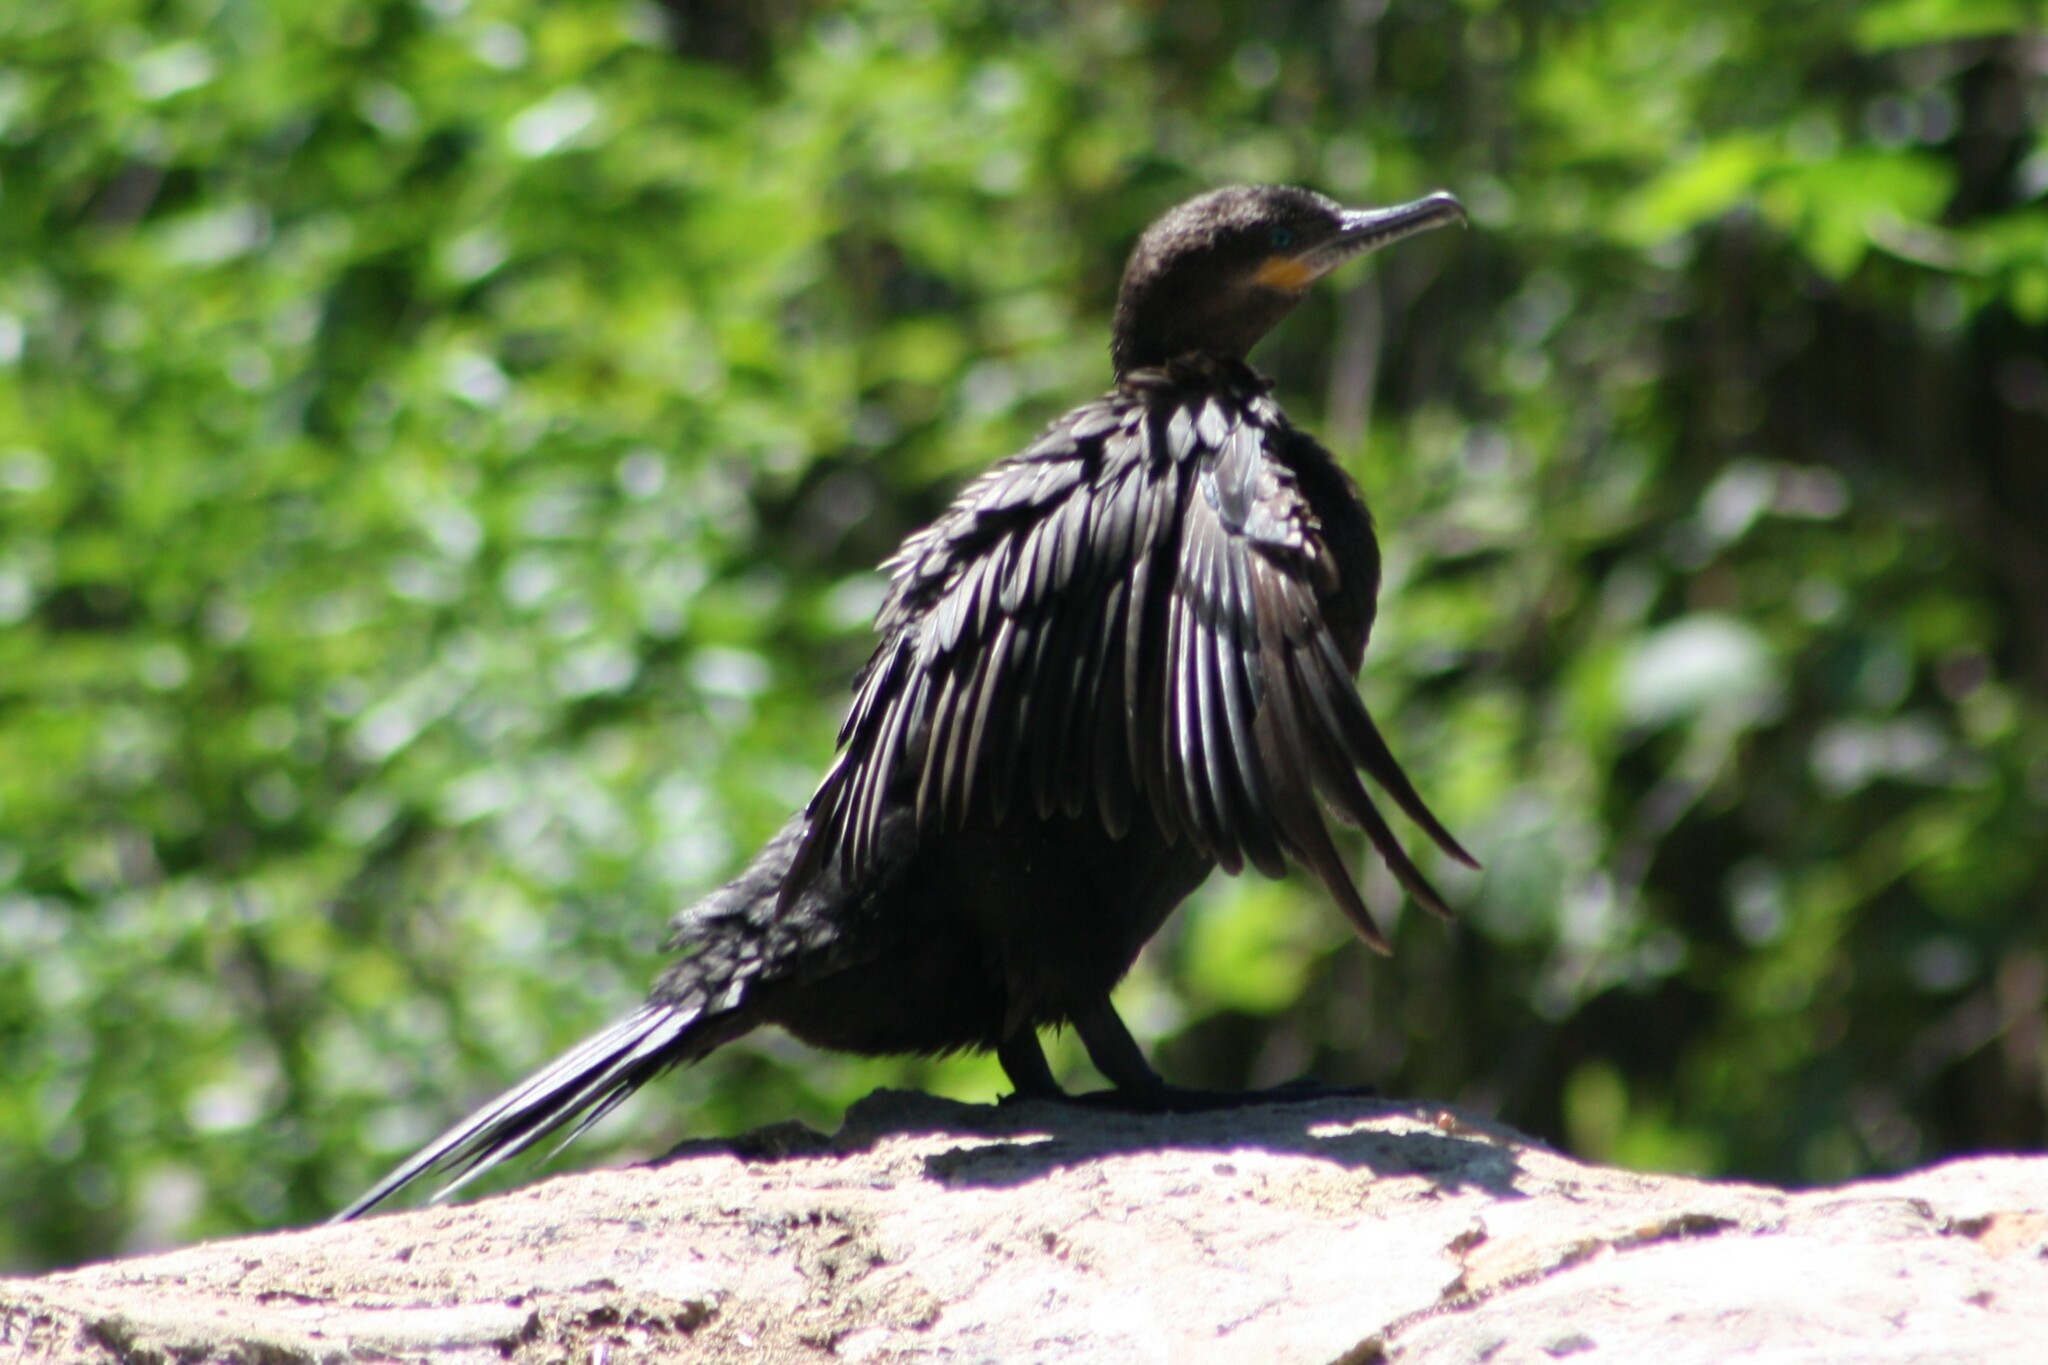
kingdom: Animalia
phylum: Chordata
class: Aves
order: Suliformes
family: Phalacrocoracidae
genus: Phalacrocorax
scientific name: Phalacrocorax brasilianus
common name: Neotropic cormorant
